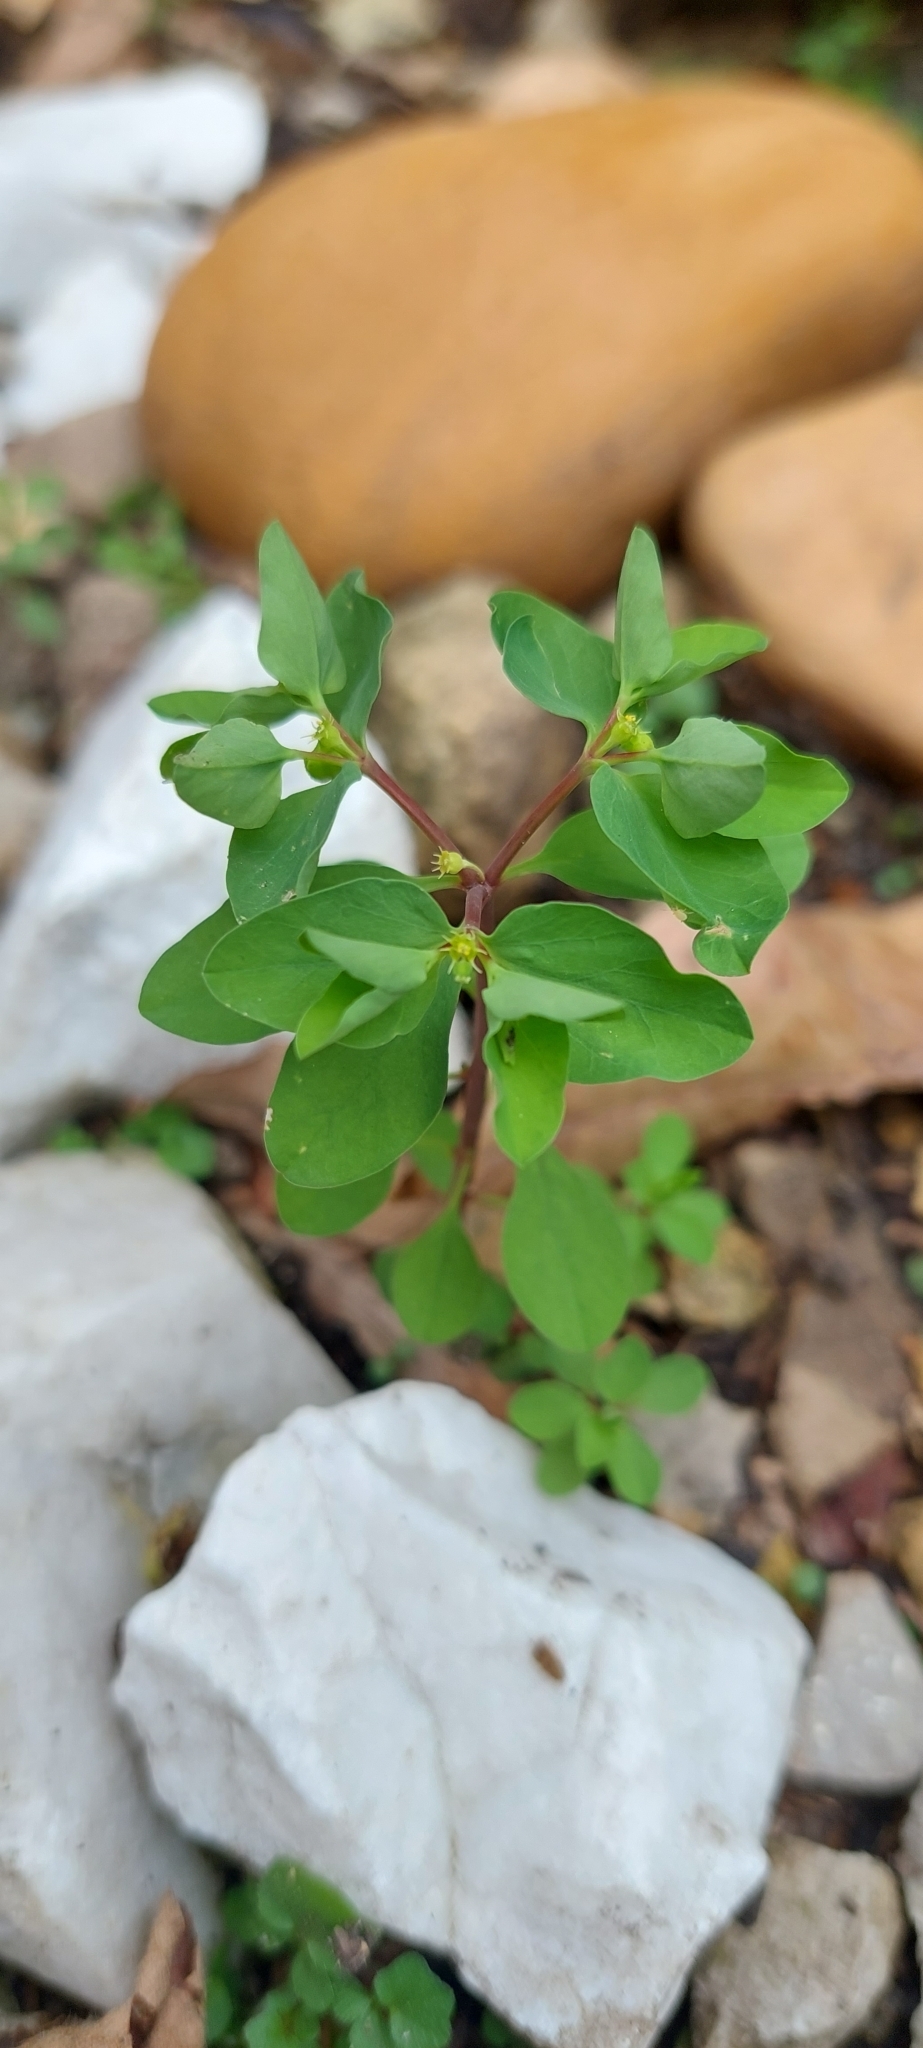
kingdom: Plantae
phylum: Tracheophyta
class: Magnoliopsida
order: Malpighiales
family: Euphorbiaceae
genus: Euphorbia
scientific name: Euphorbia peplus
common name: Petty spurge
